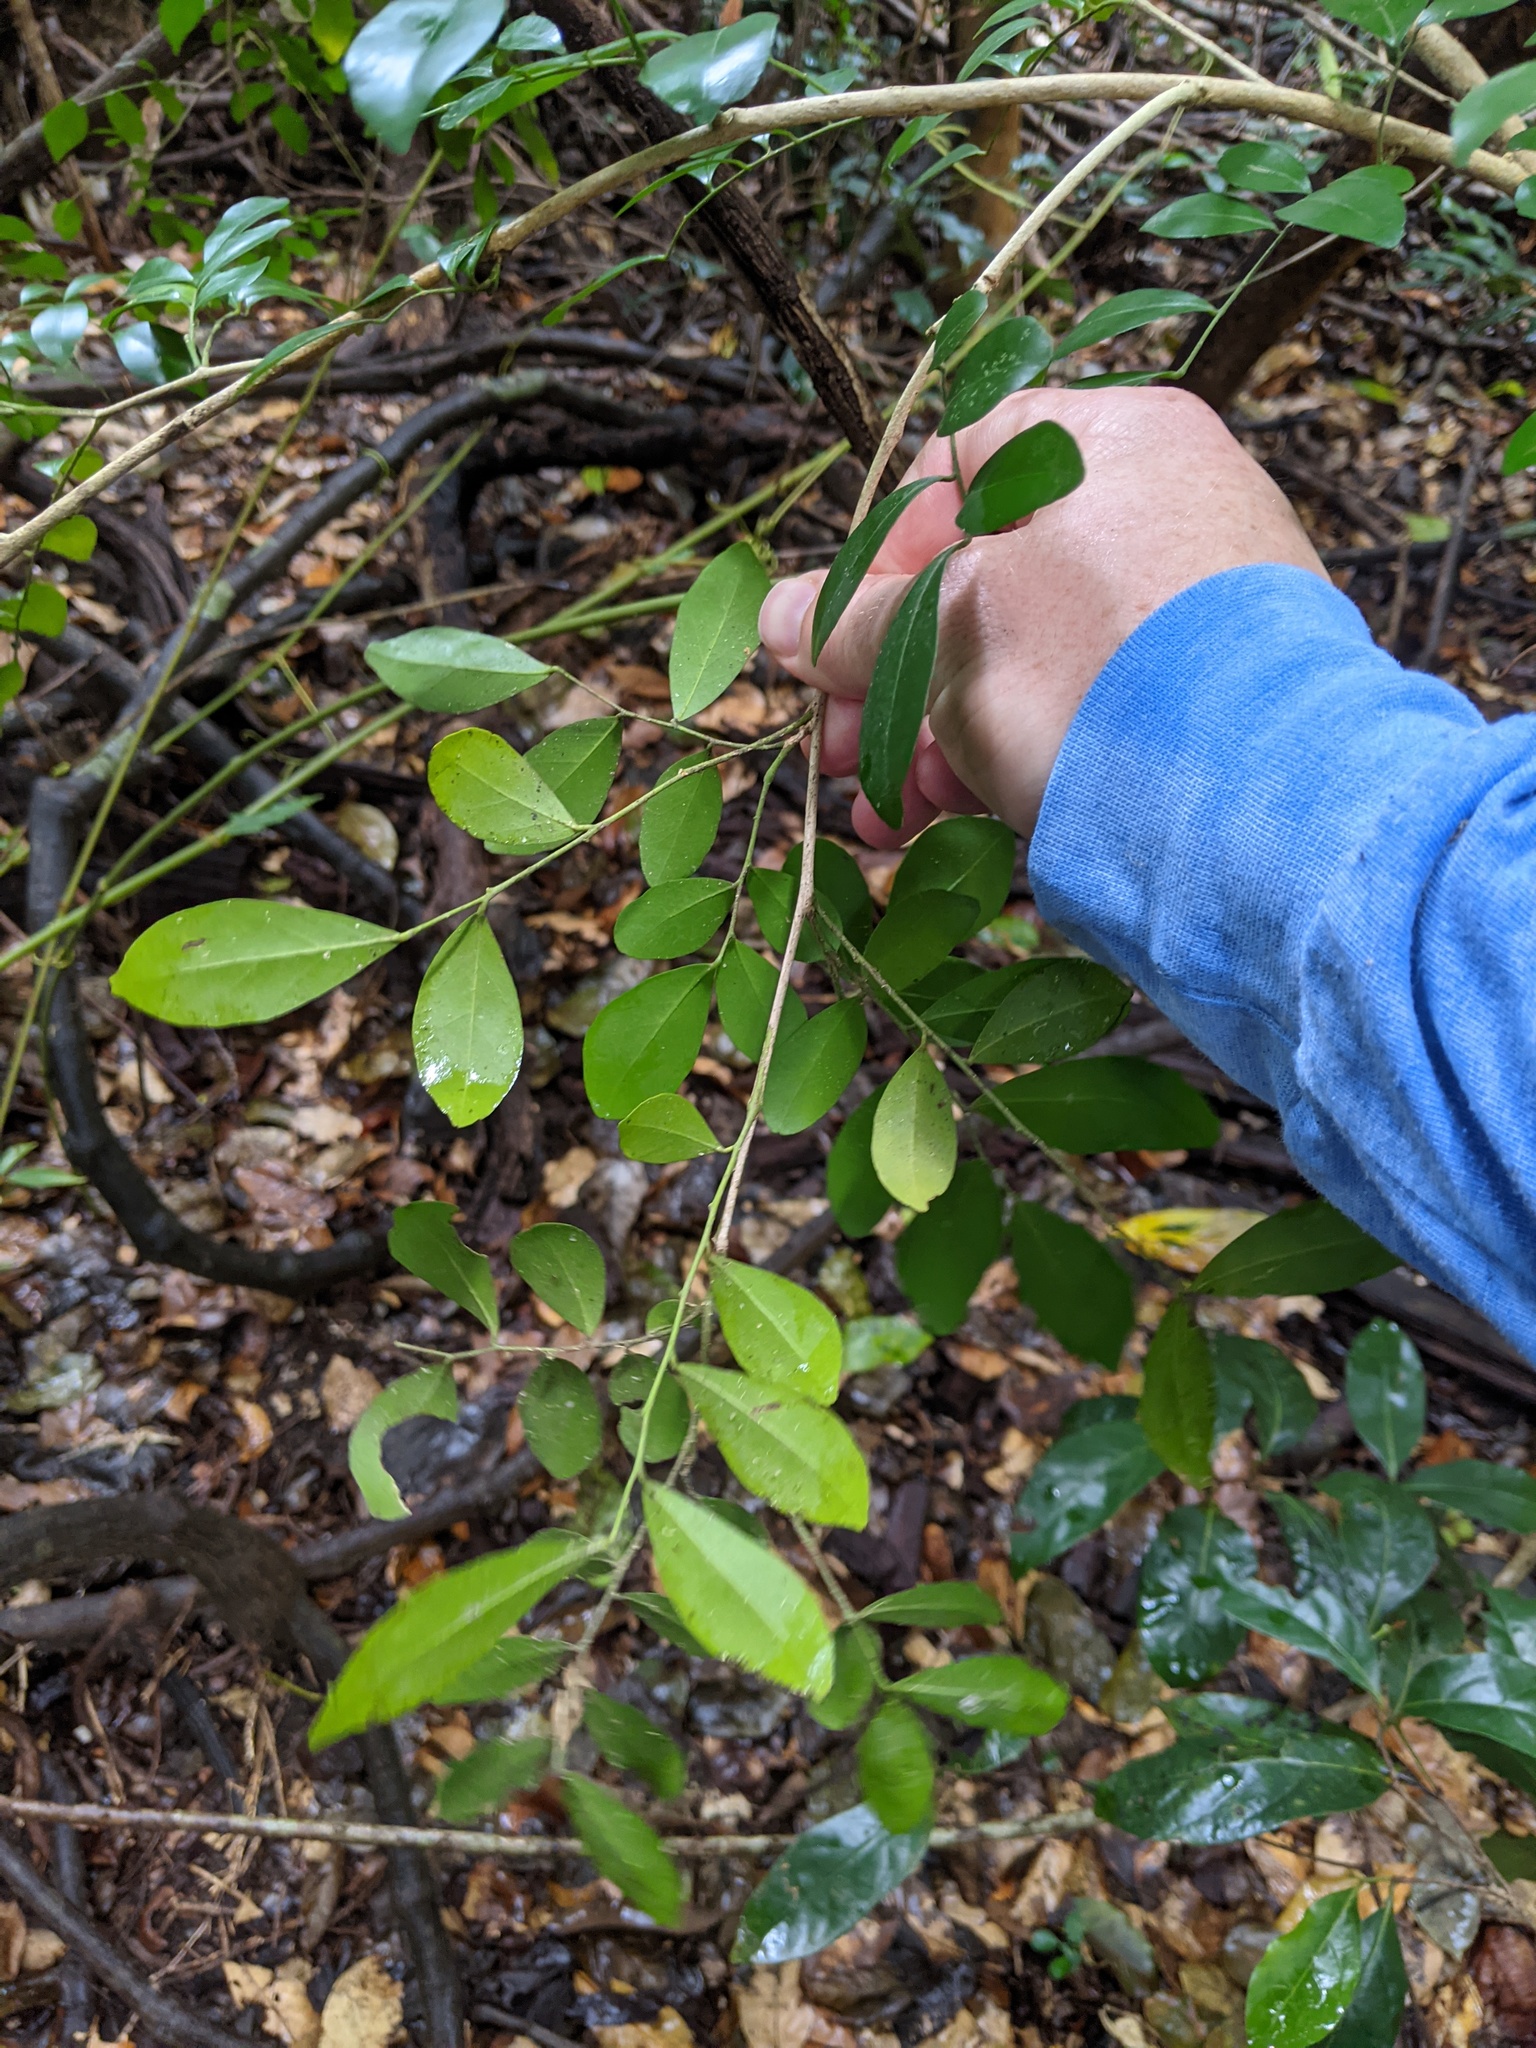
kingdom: Plantae
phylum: Tracheophyta
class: Magnoliopsida
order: Sapindales
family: Rutaceae
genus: Murraya
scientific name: Murraya paniculata
